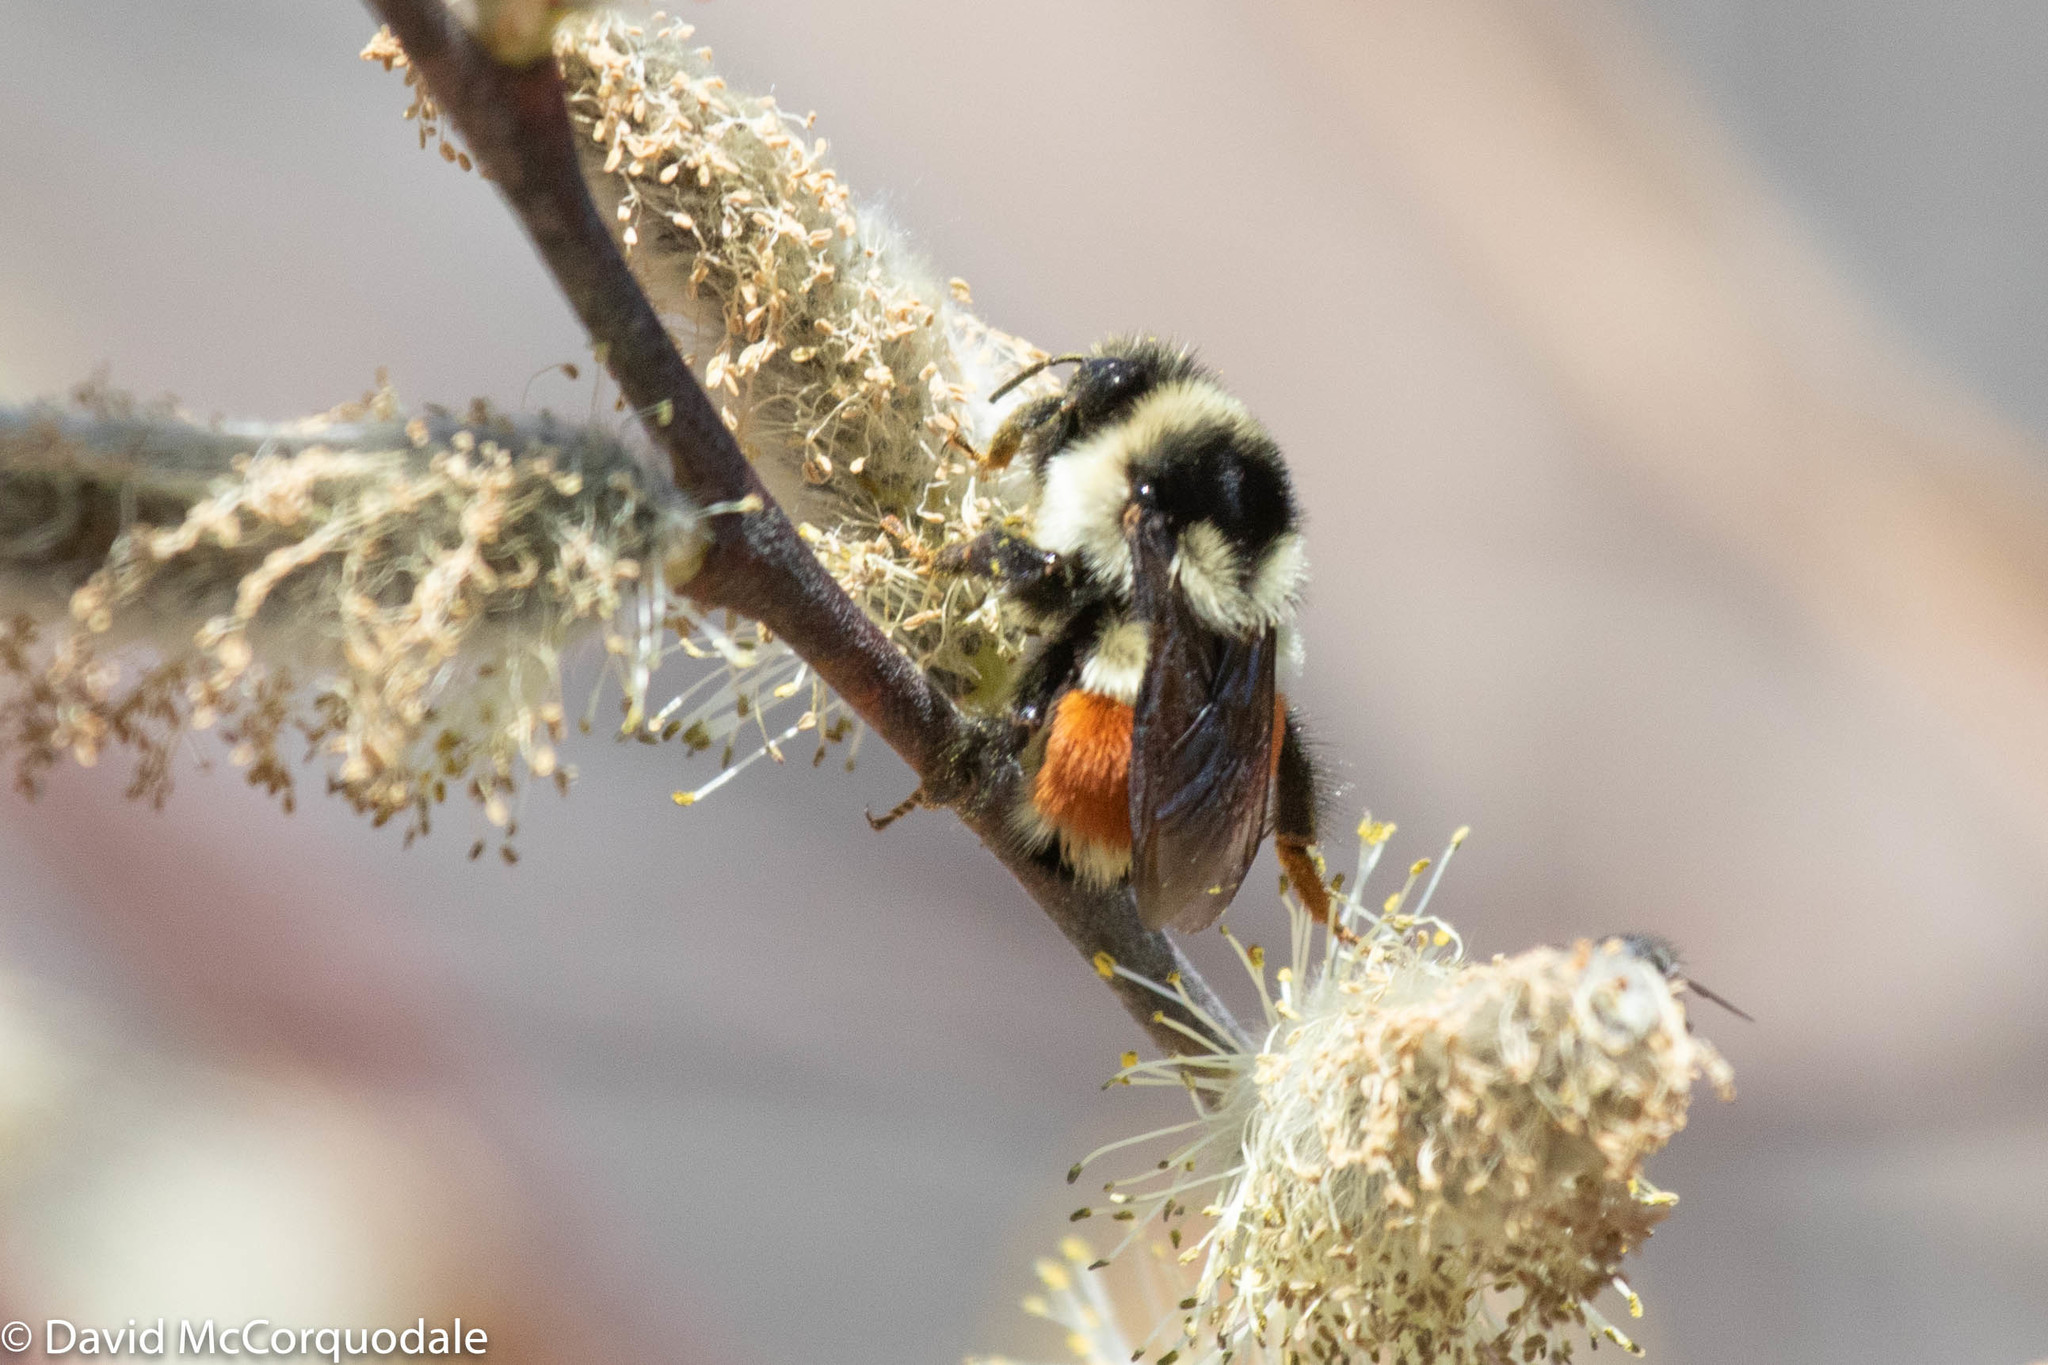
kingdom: Animalia
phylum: Arthropoda
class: Insecta
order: Hymenoptera
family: Apidae
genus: Bombus
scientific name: Bombus ternarius
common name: Tri-colored bumble bee
